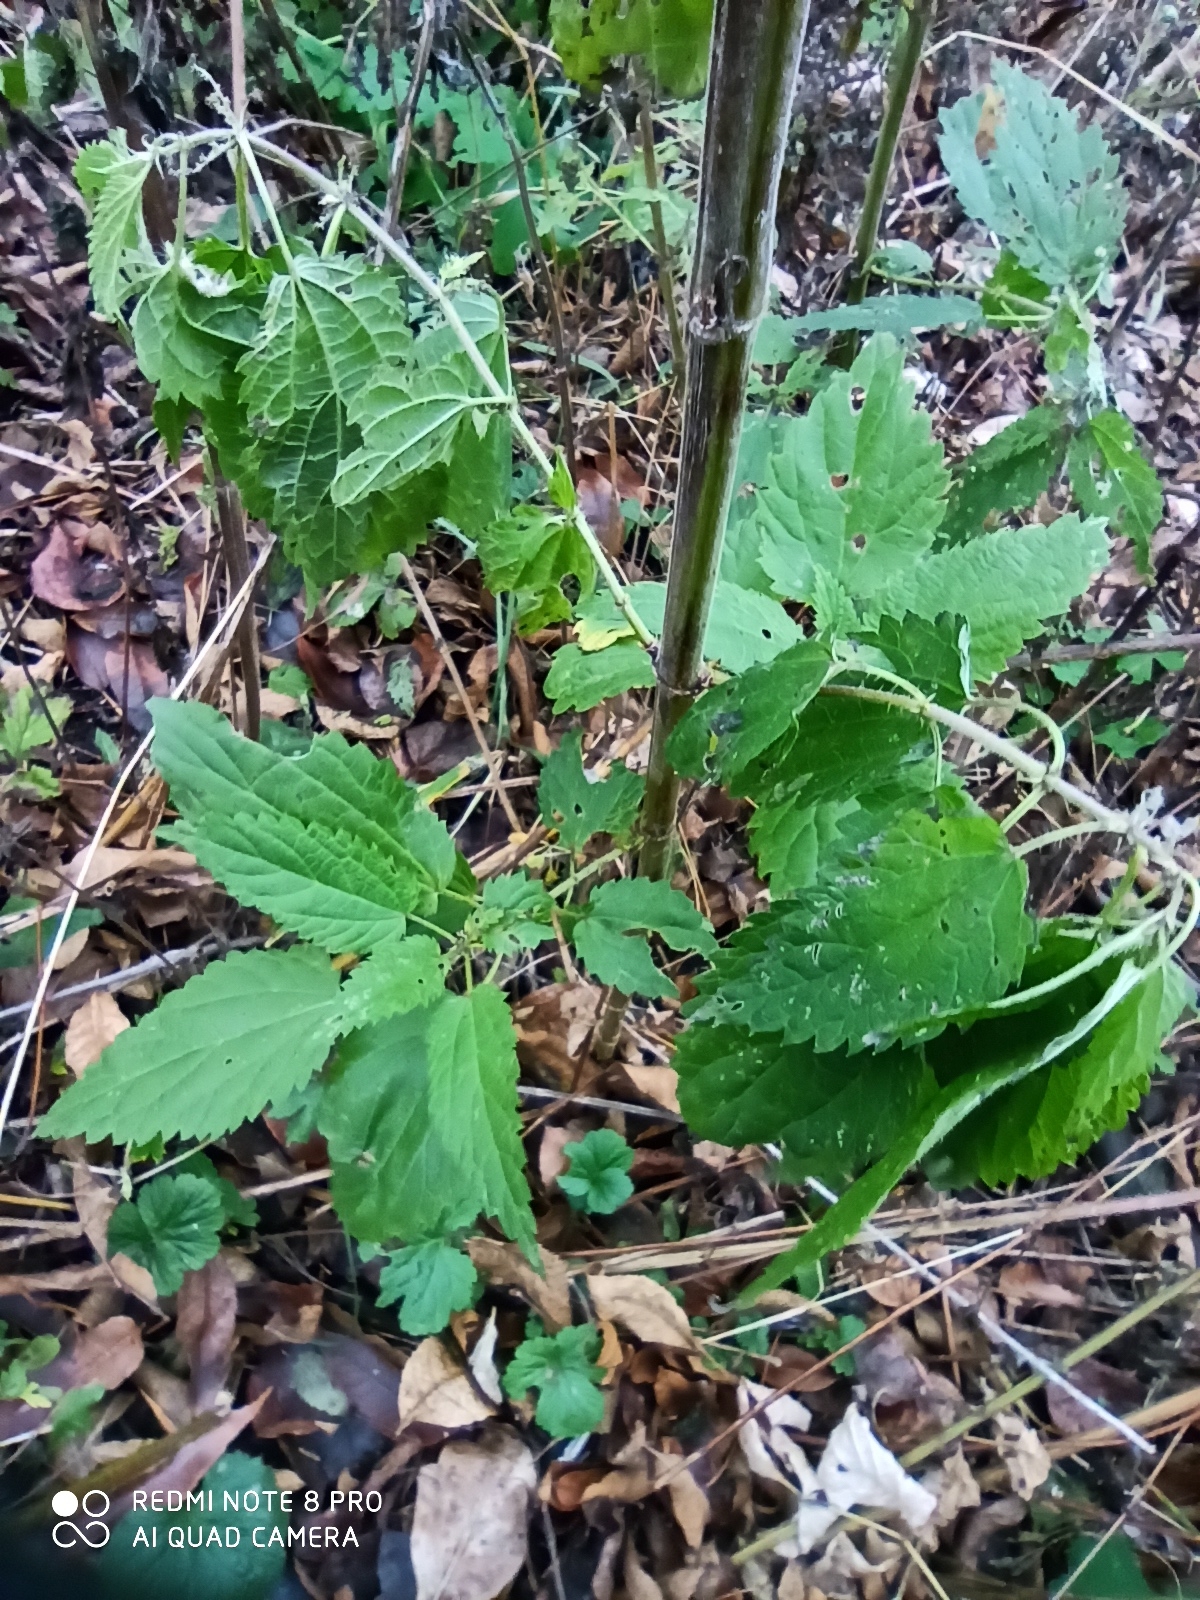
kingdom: Plantae
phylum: Tracheophyta
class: Magnoliopsida
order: Rosales
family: Urticaceae
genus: Urtica
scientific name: Urtica dioica
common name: Common nettle
